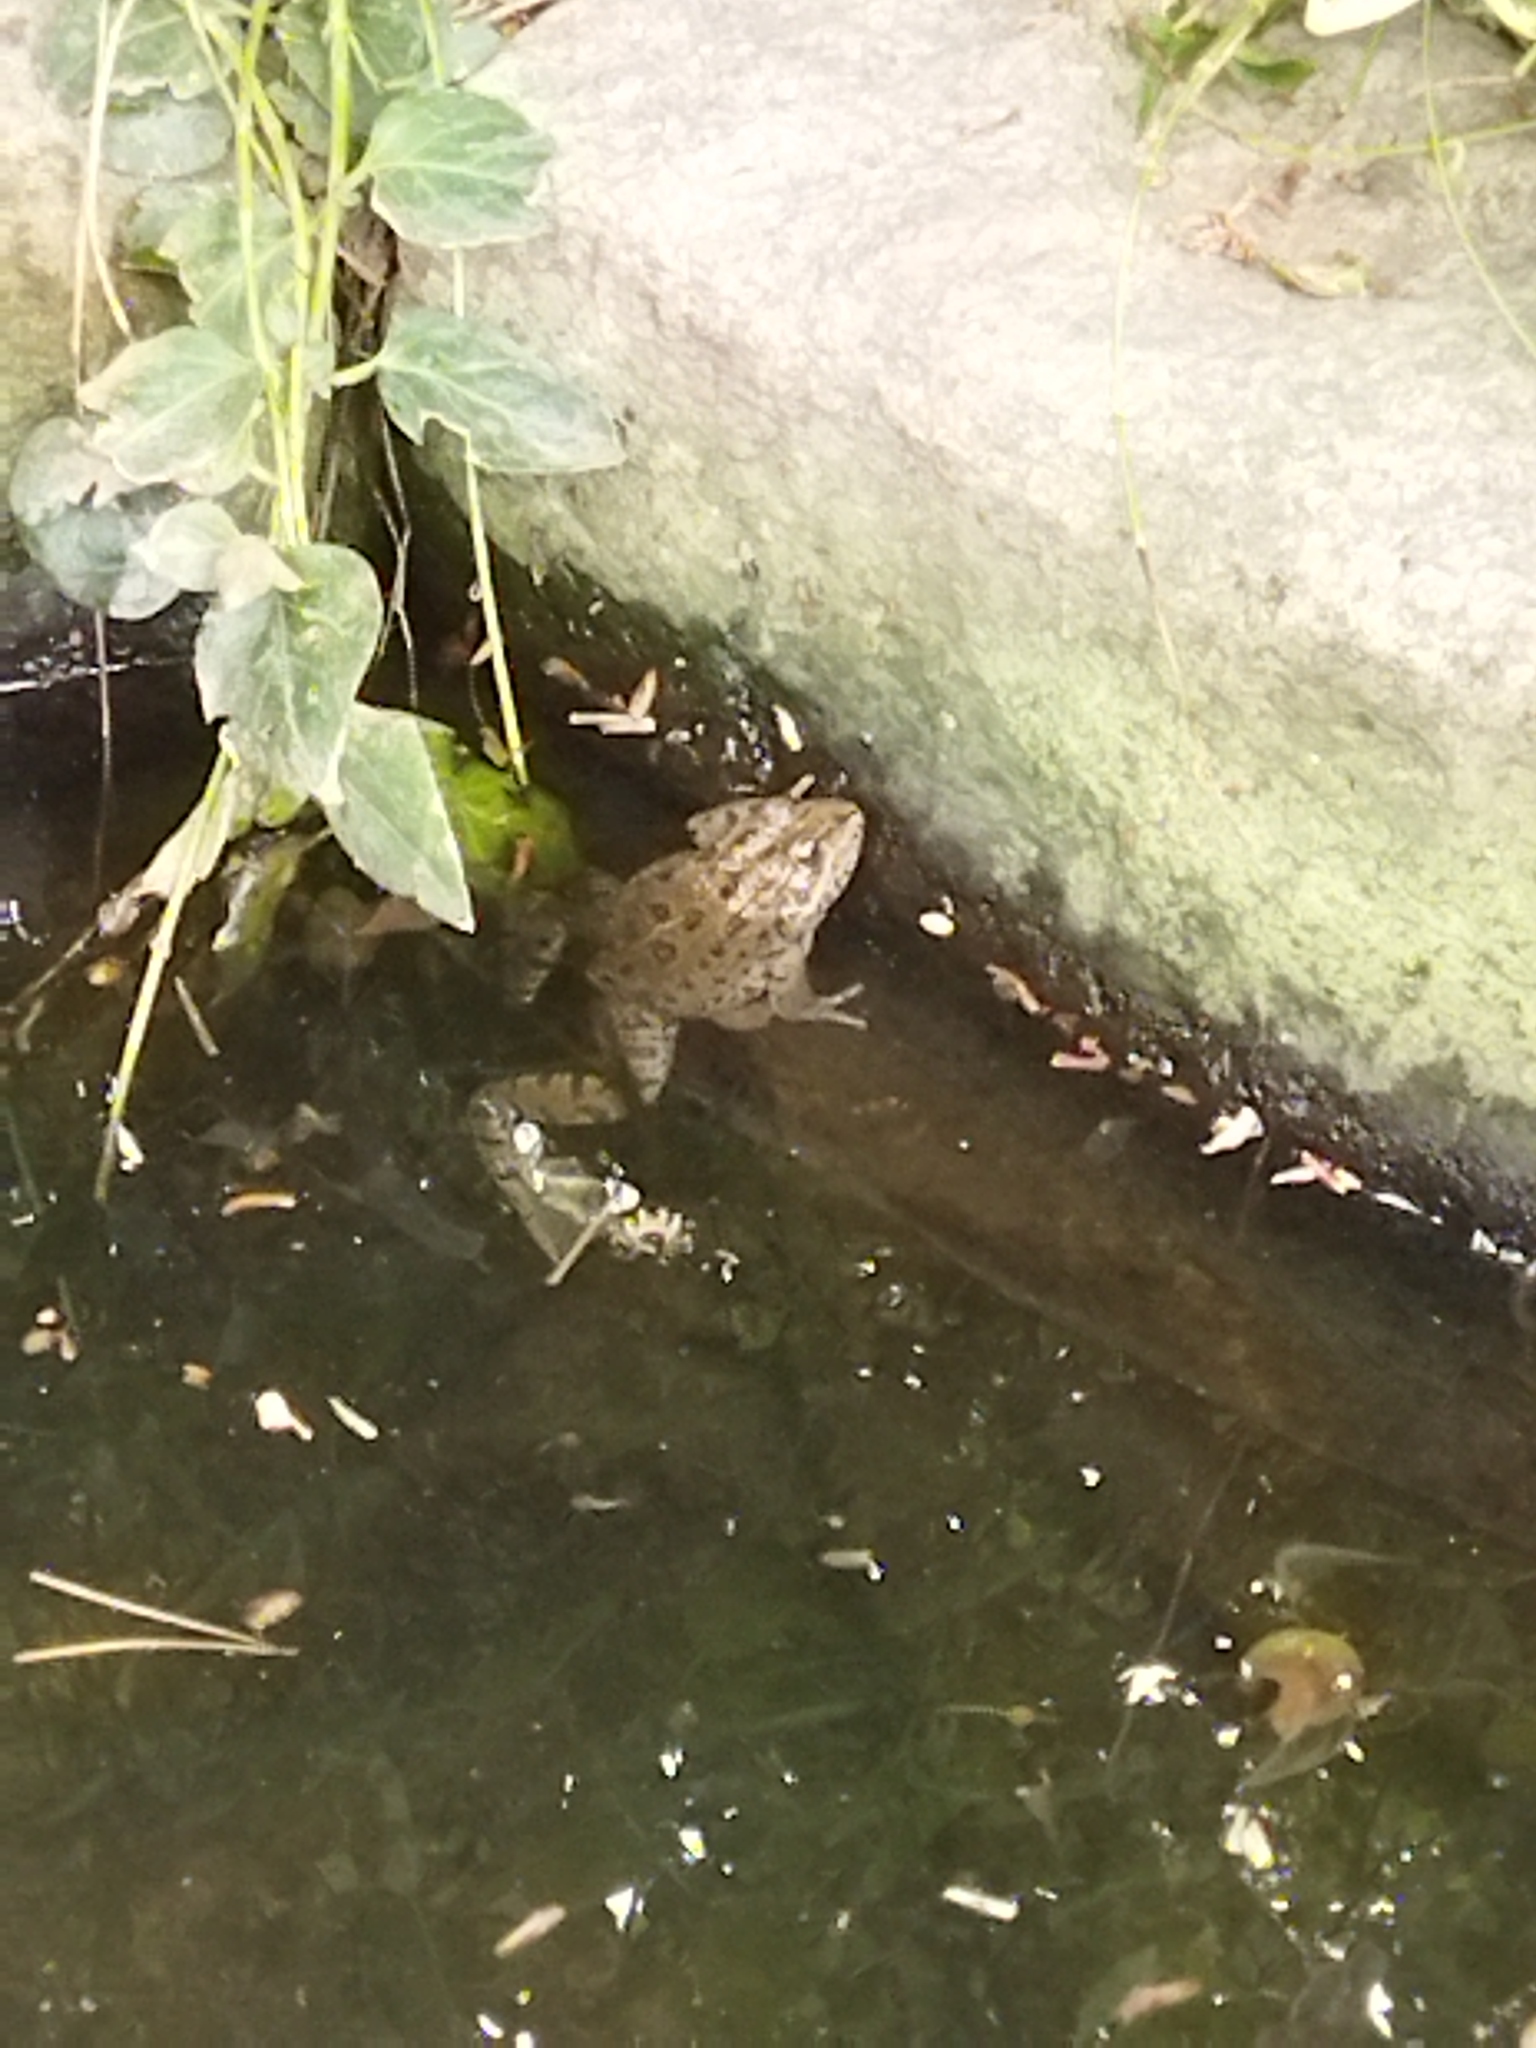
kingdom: Animalia
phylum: Chordata
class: Amphibia
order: Anura
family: Ranidae
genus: Pelophylax
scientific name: Pelophylax ridibundus
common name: Marsh frog
